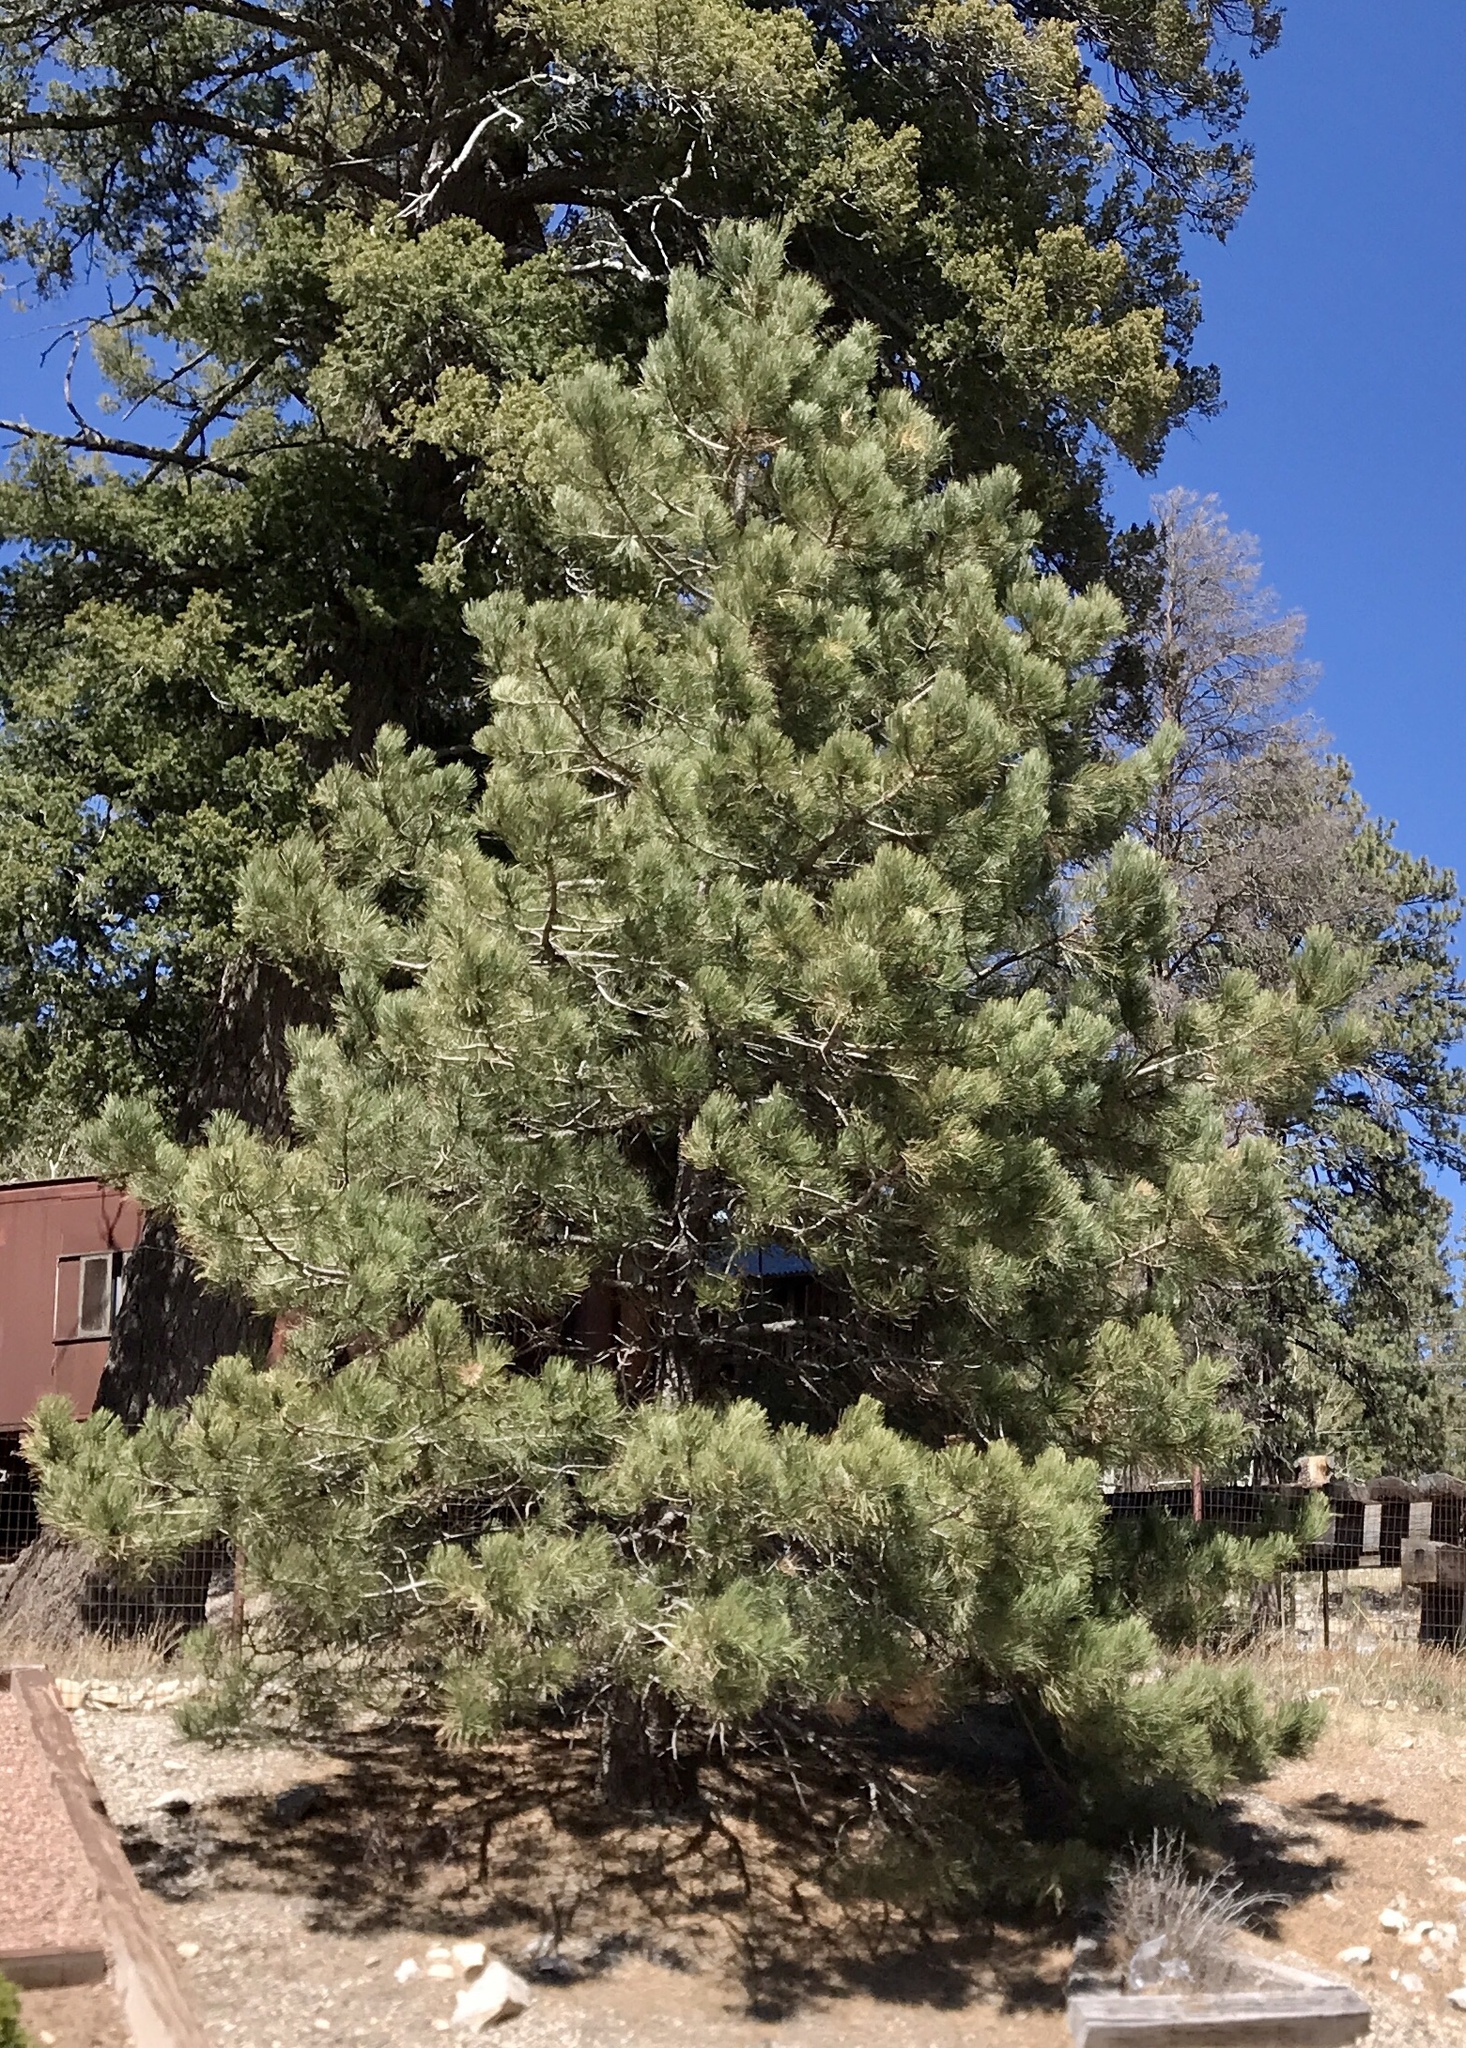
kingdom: Plantae
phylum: Tracheophyta
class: Pinopsida
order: Pinales
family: Pinaceae
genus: Pinus
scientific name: Pinus ponderosa
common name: Western yellow-pine
